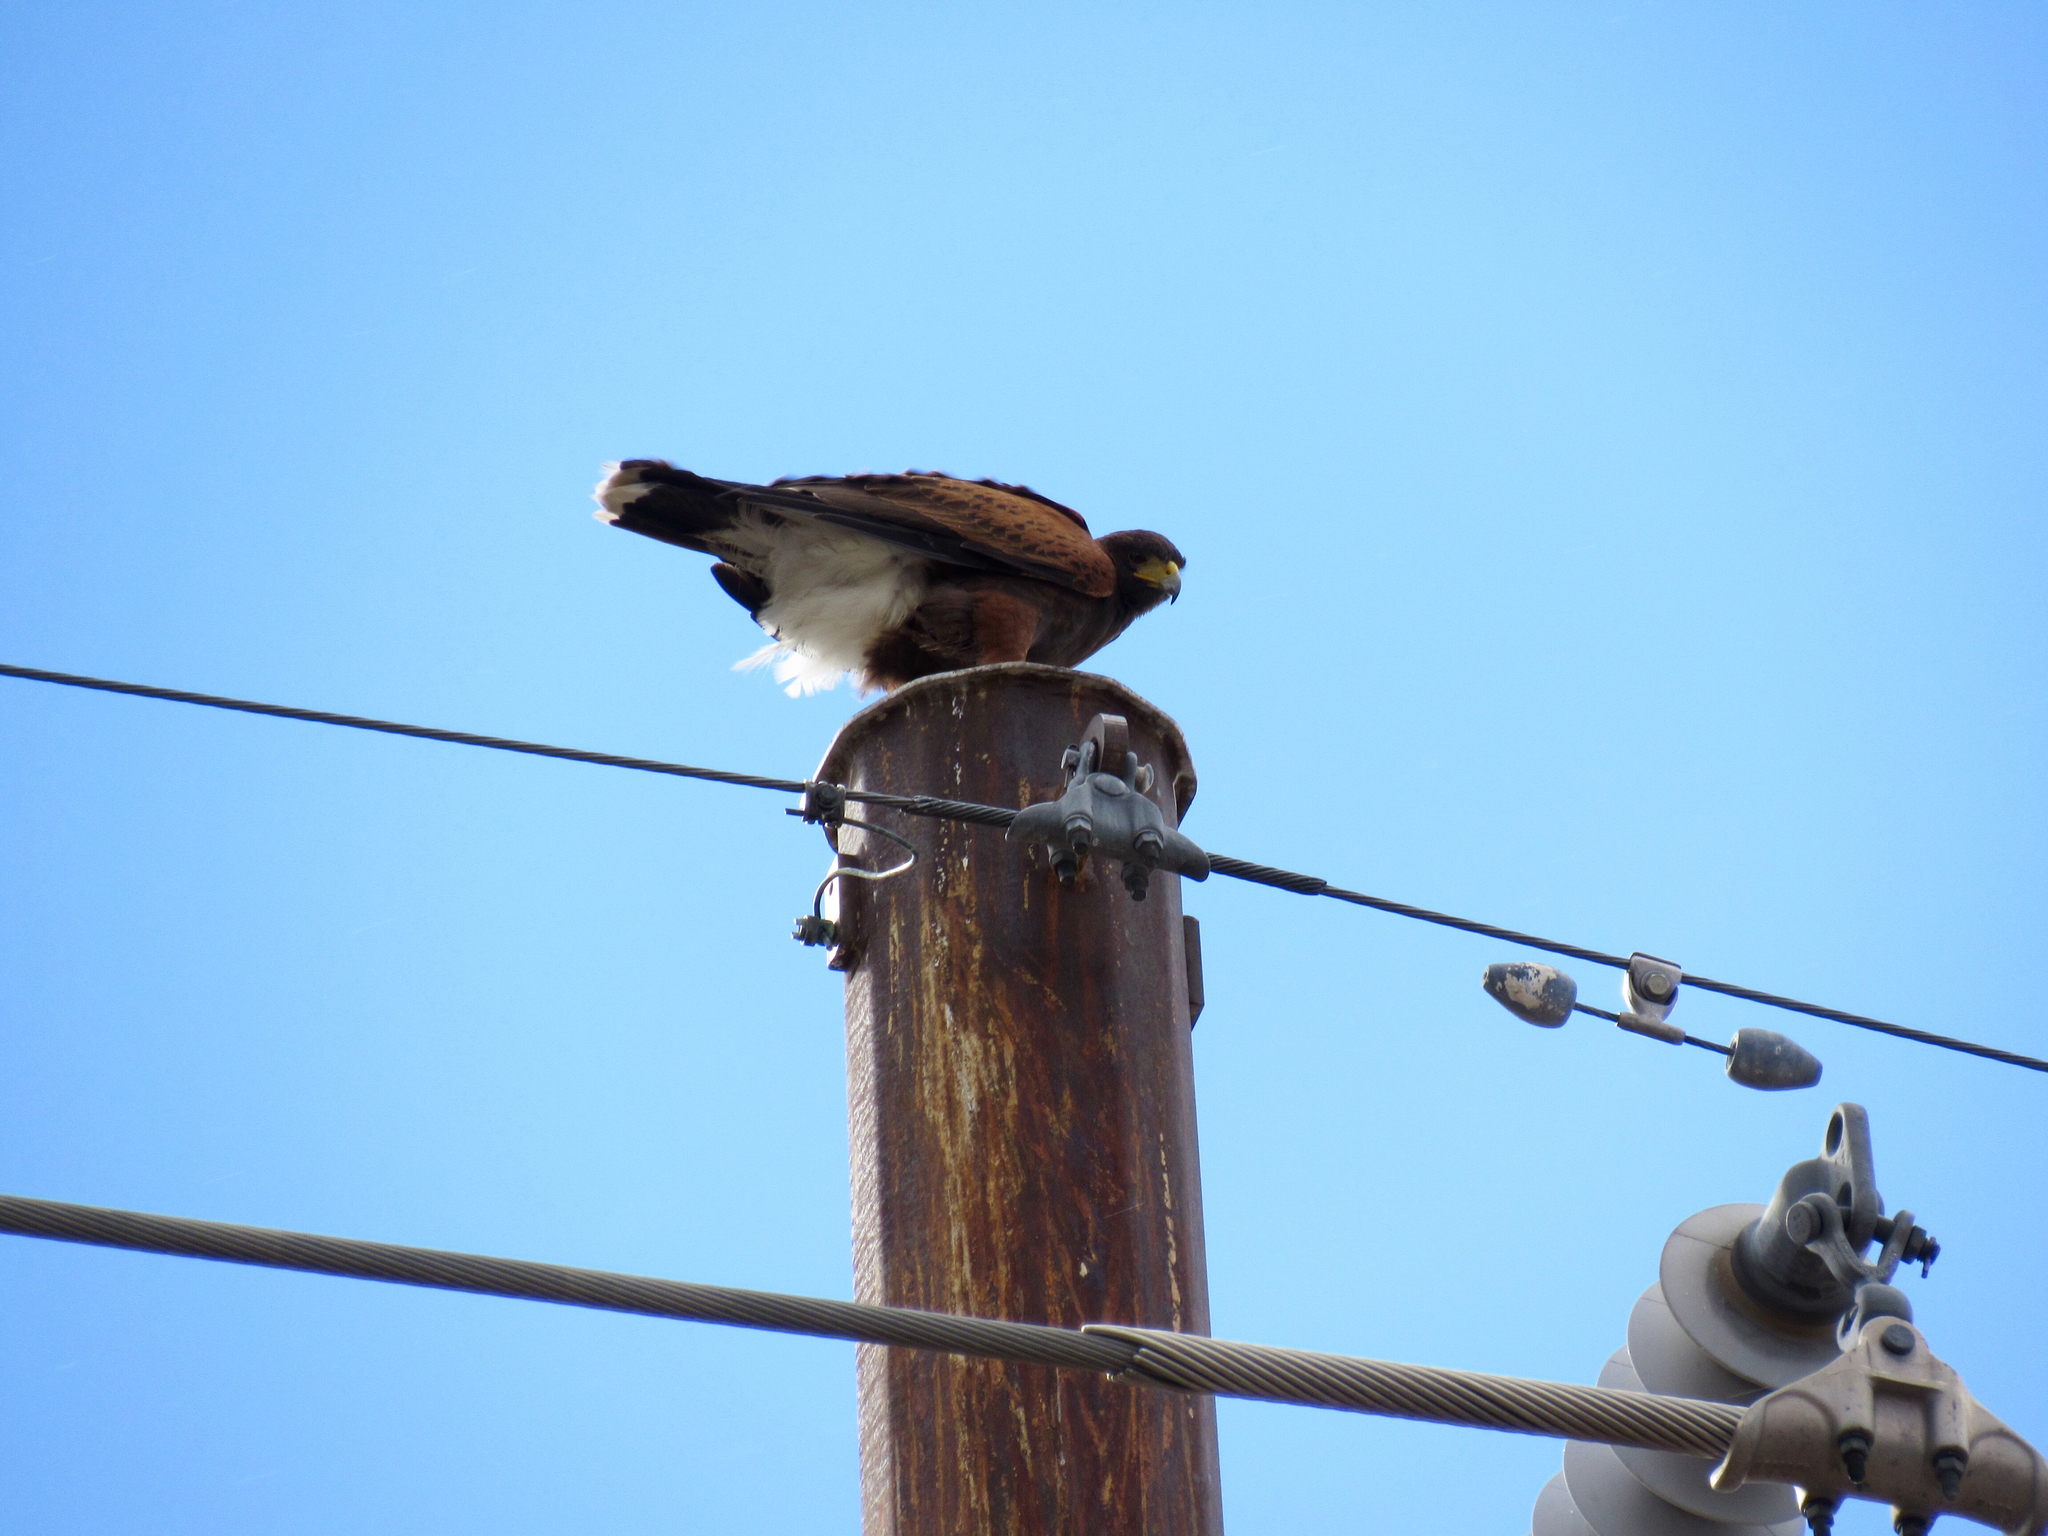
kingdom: Animalia
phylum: Chordata
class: Aves
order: Accipitriformes
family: Accipitridae
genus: Parabuteo
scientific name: Parabuteo unicinctus
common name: Harris's hawk
